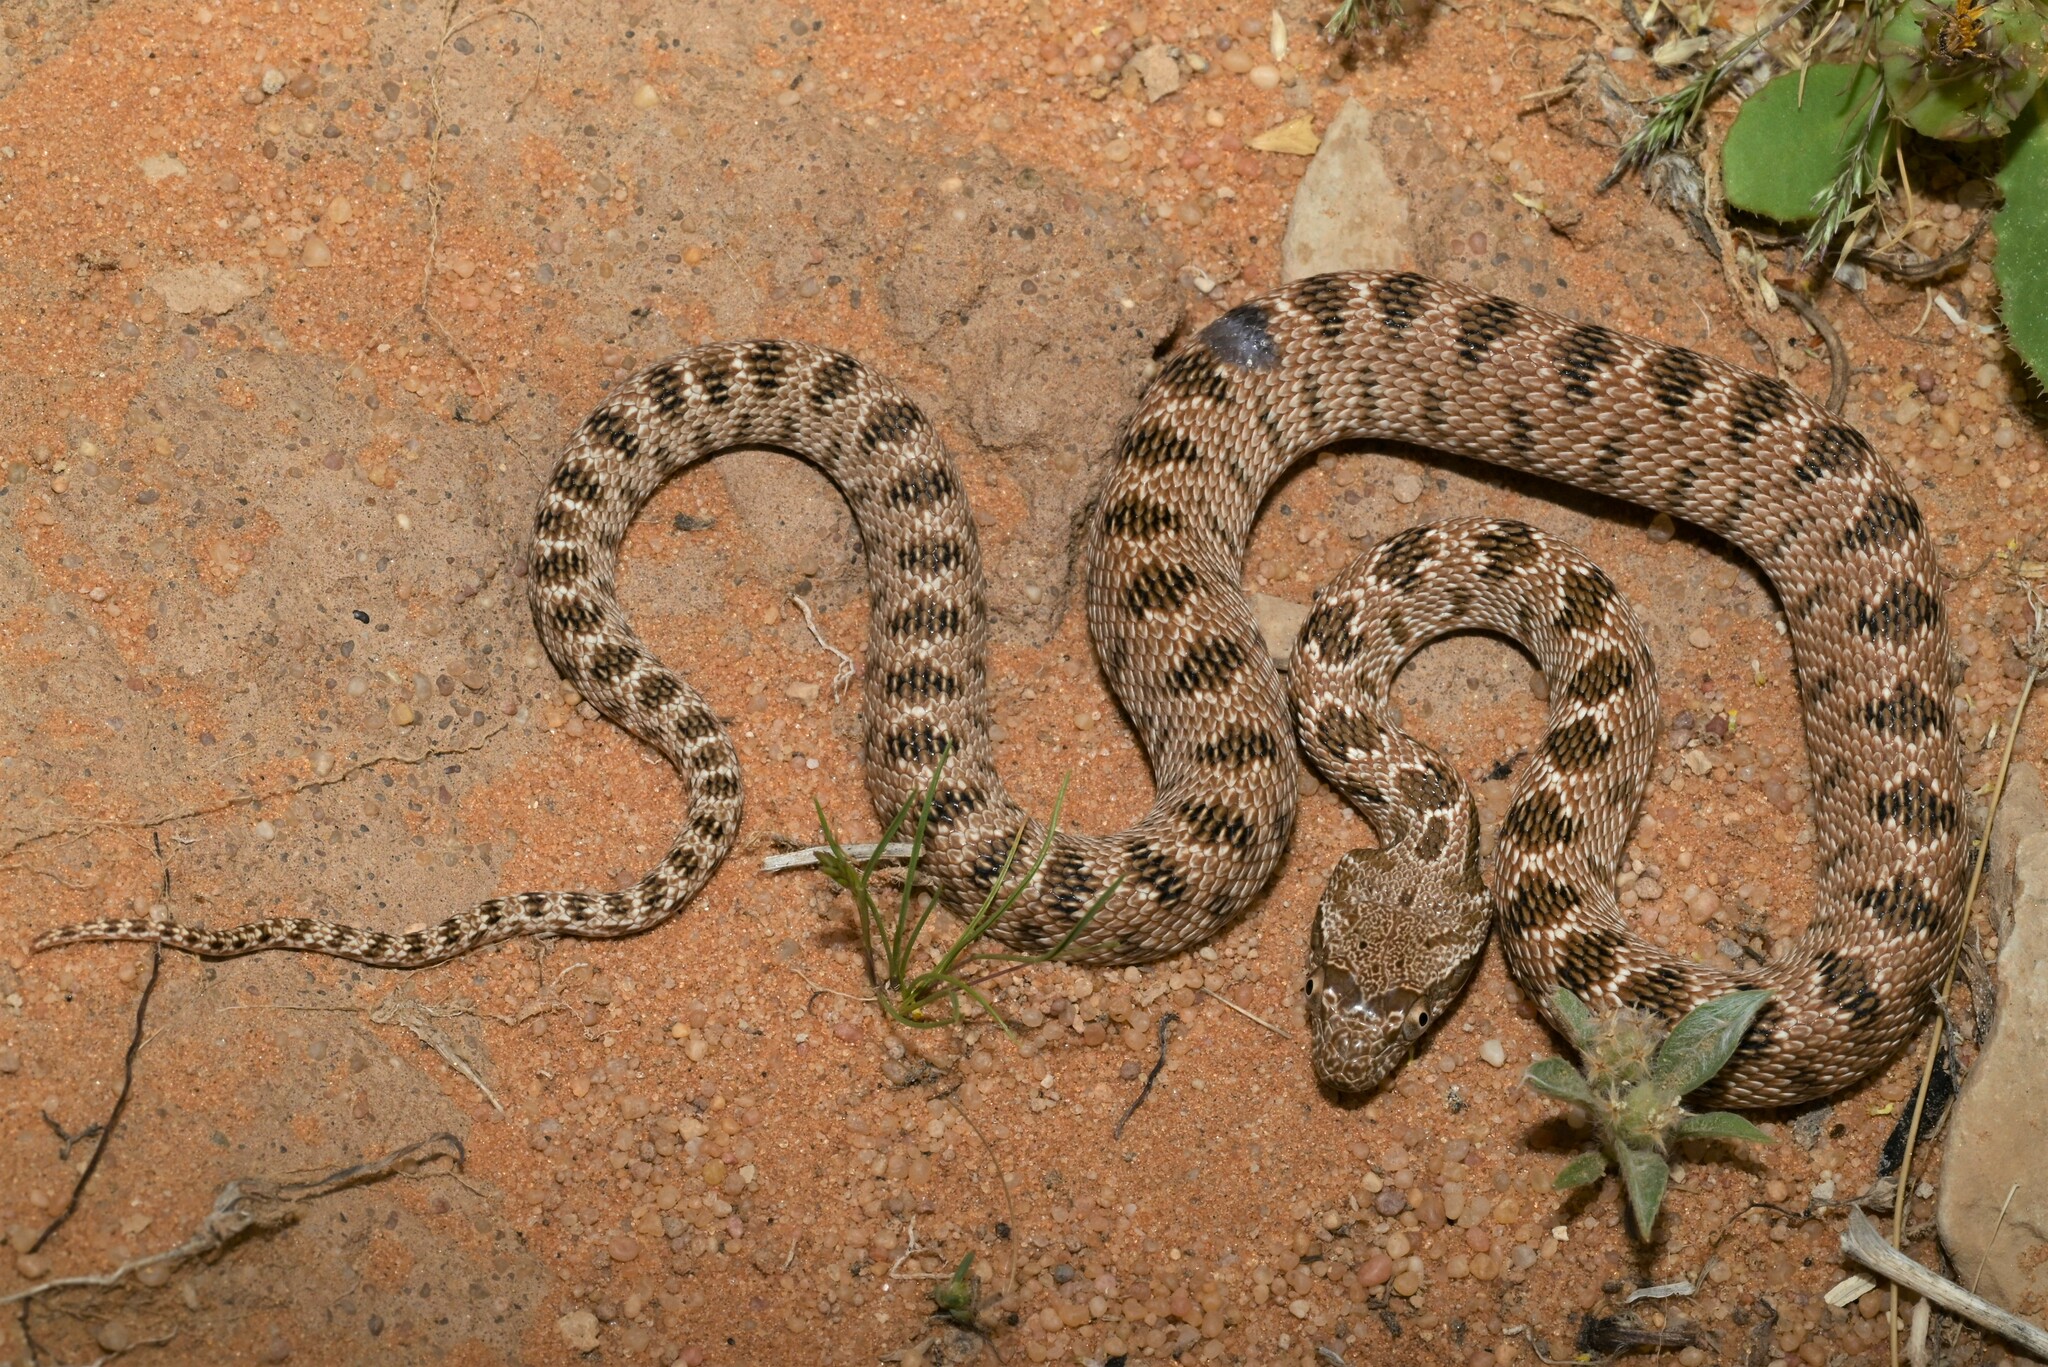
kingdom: Animalia
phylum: Chordata
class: Squamata
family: Colubridae
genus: Spalerosophis
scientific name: Spalerosophis diadema
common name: Diadem snake
